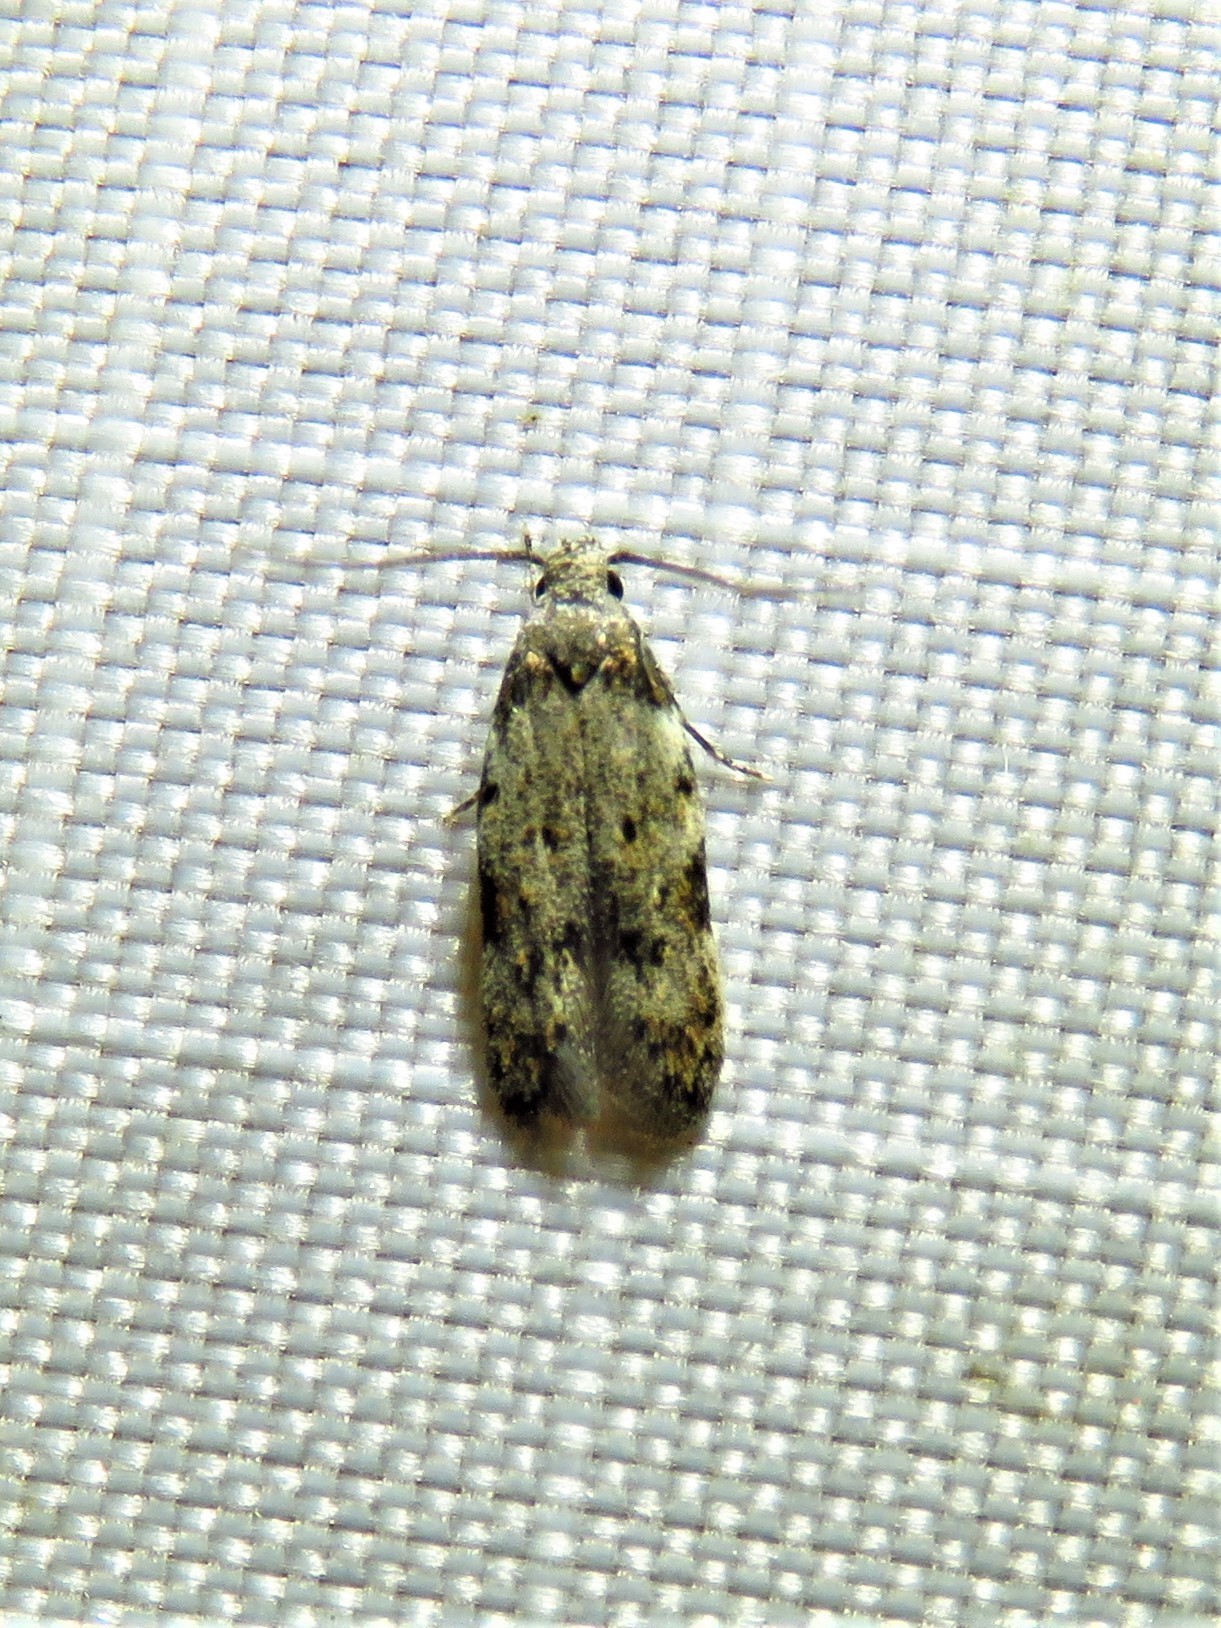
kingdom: Animalia
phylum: Arthropoda
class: Insecta
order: Lepidoptera
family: Autostichidae
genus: Taygete
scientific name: Taygete attributella
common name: Triangle-marked twirler moth
